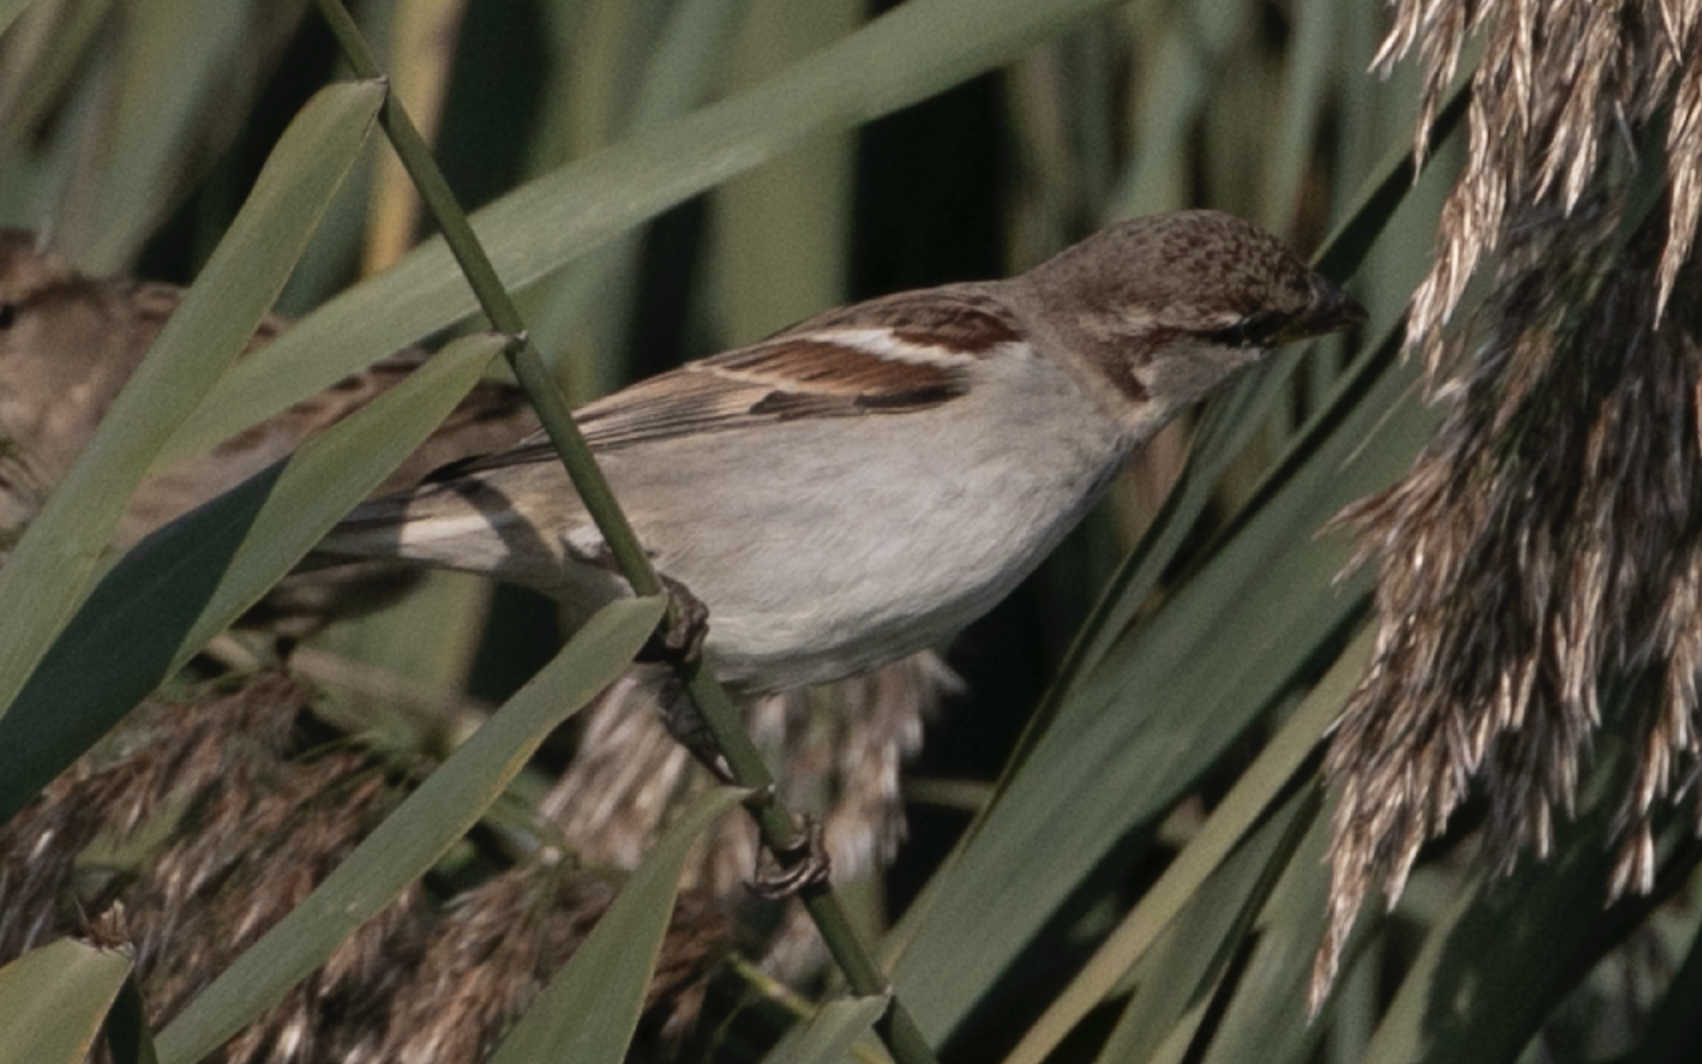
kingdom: Animalia
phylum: Chordata
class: Aves
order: Passeriformes
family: Passeridae
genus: Passer
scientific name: Passer italiae
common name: Italian sparrow
